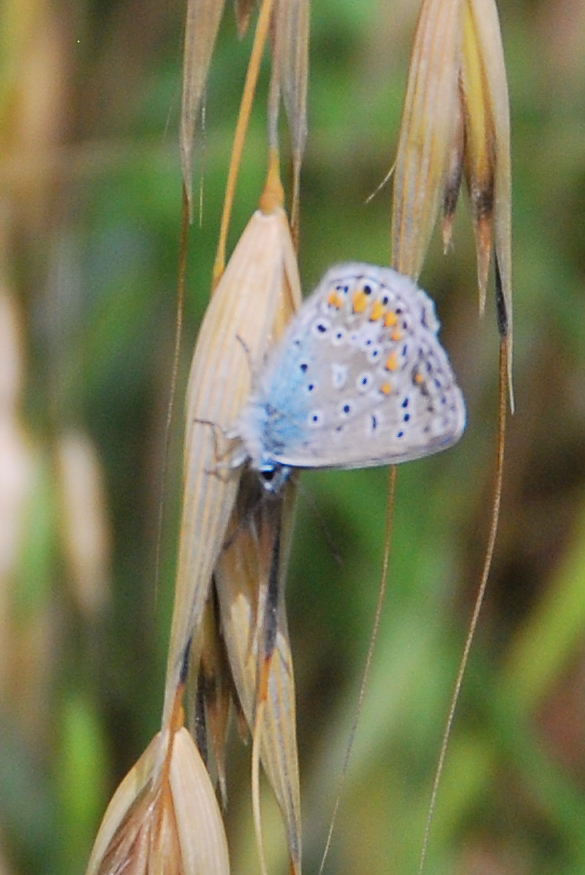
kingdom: Animalia
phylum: Arthropoda
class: Insecta
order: Lepidoptera
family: Lycaenidae
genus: Polyommatus
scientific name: Polyommatus icarus
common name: Common blue
